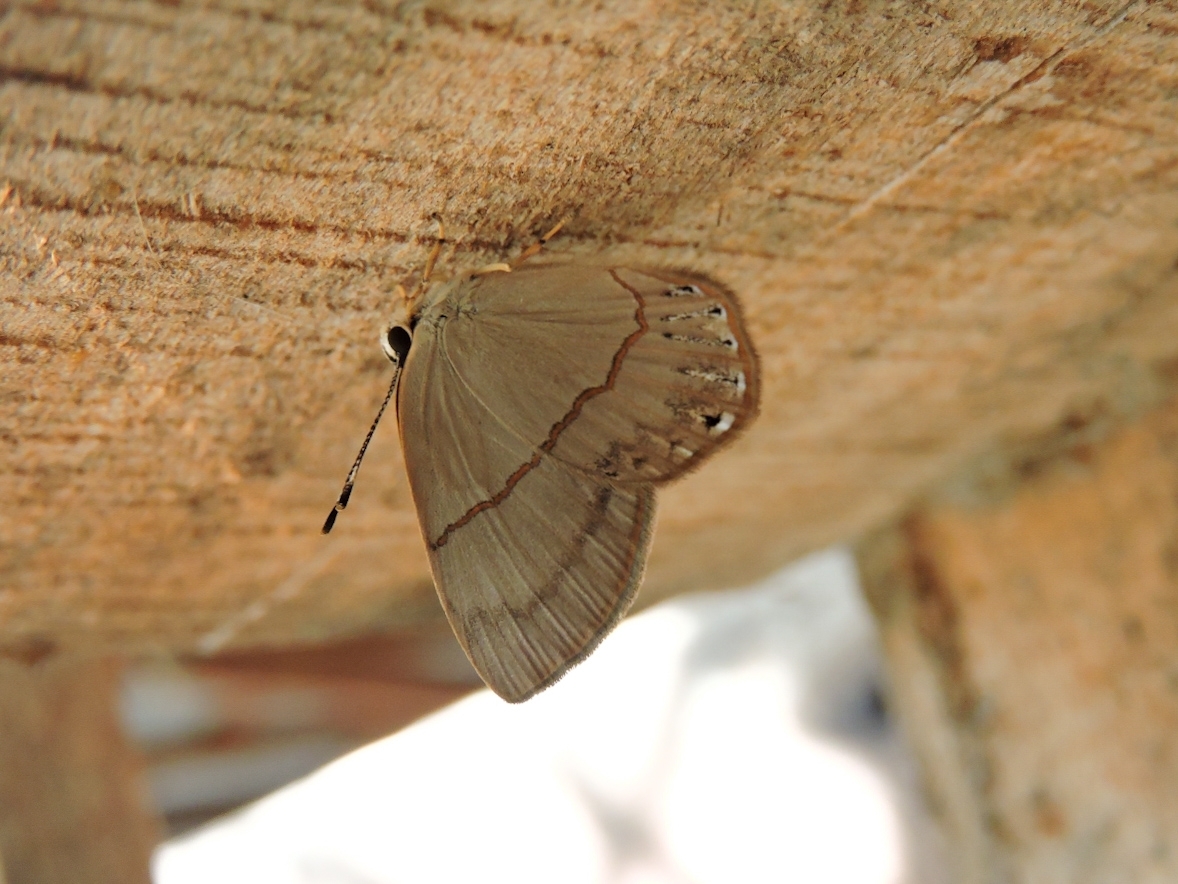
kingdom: Animalia
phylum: Arthropoda
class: Insecta
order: Lepidoptera
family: Riodinidae
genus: Myselasia
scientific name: Myselasia
